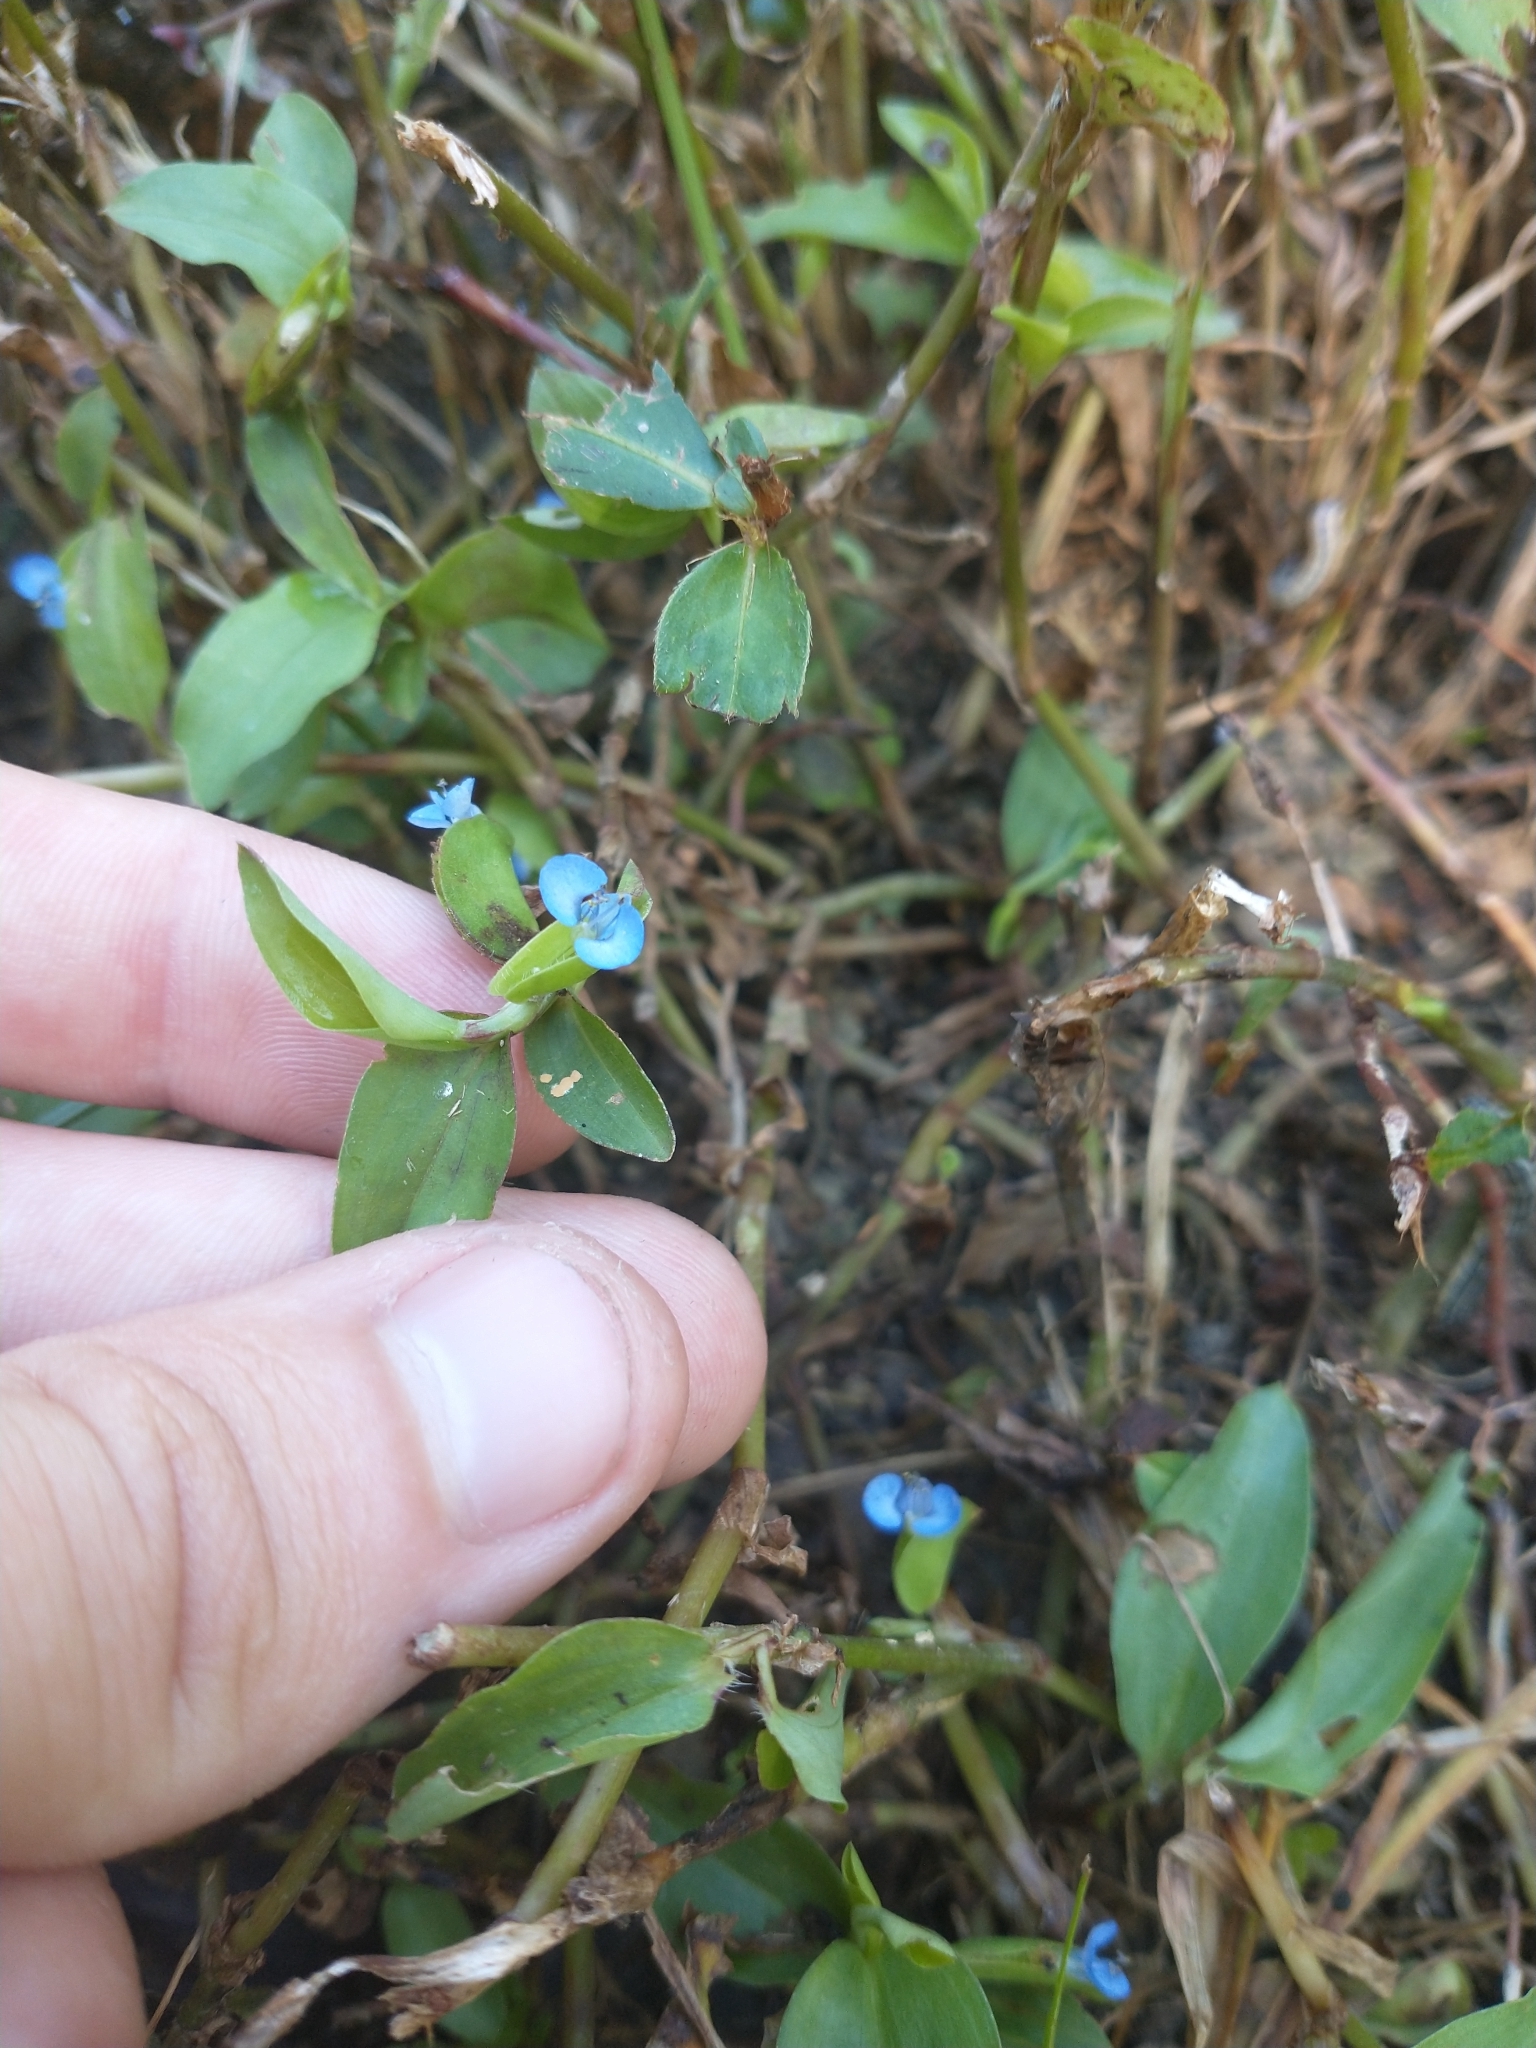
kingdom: Plantae
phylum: Tracheophyta
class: Liliopsida
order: Commelinales
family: Commelinaceae
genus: Commelina
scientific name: Commelina diffusa
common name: Climbing dayflower
